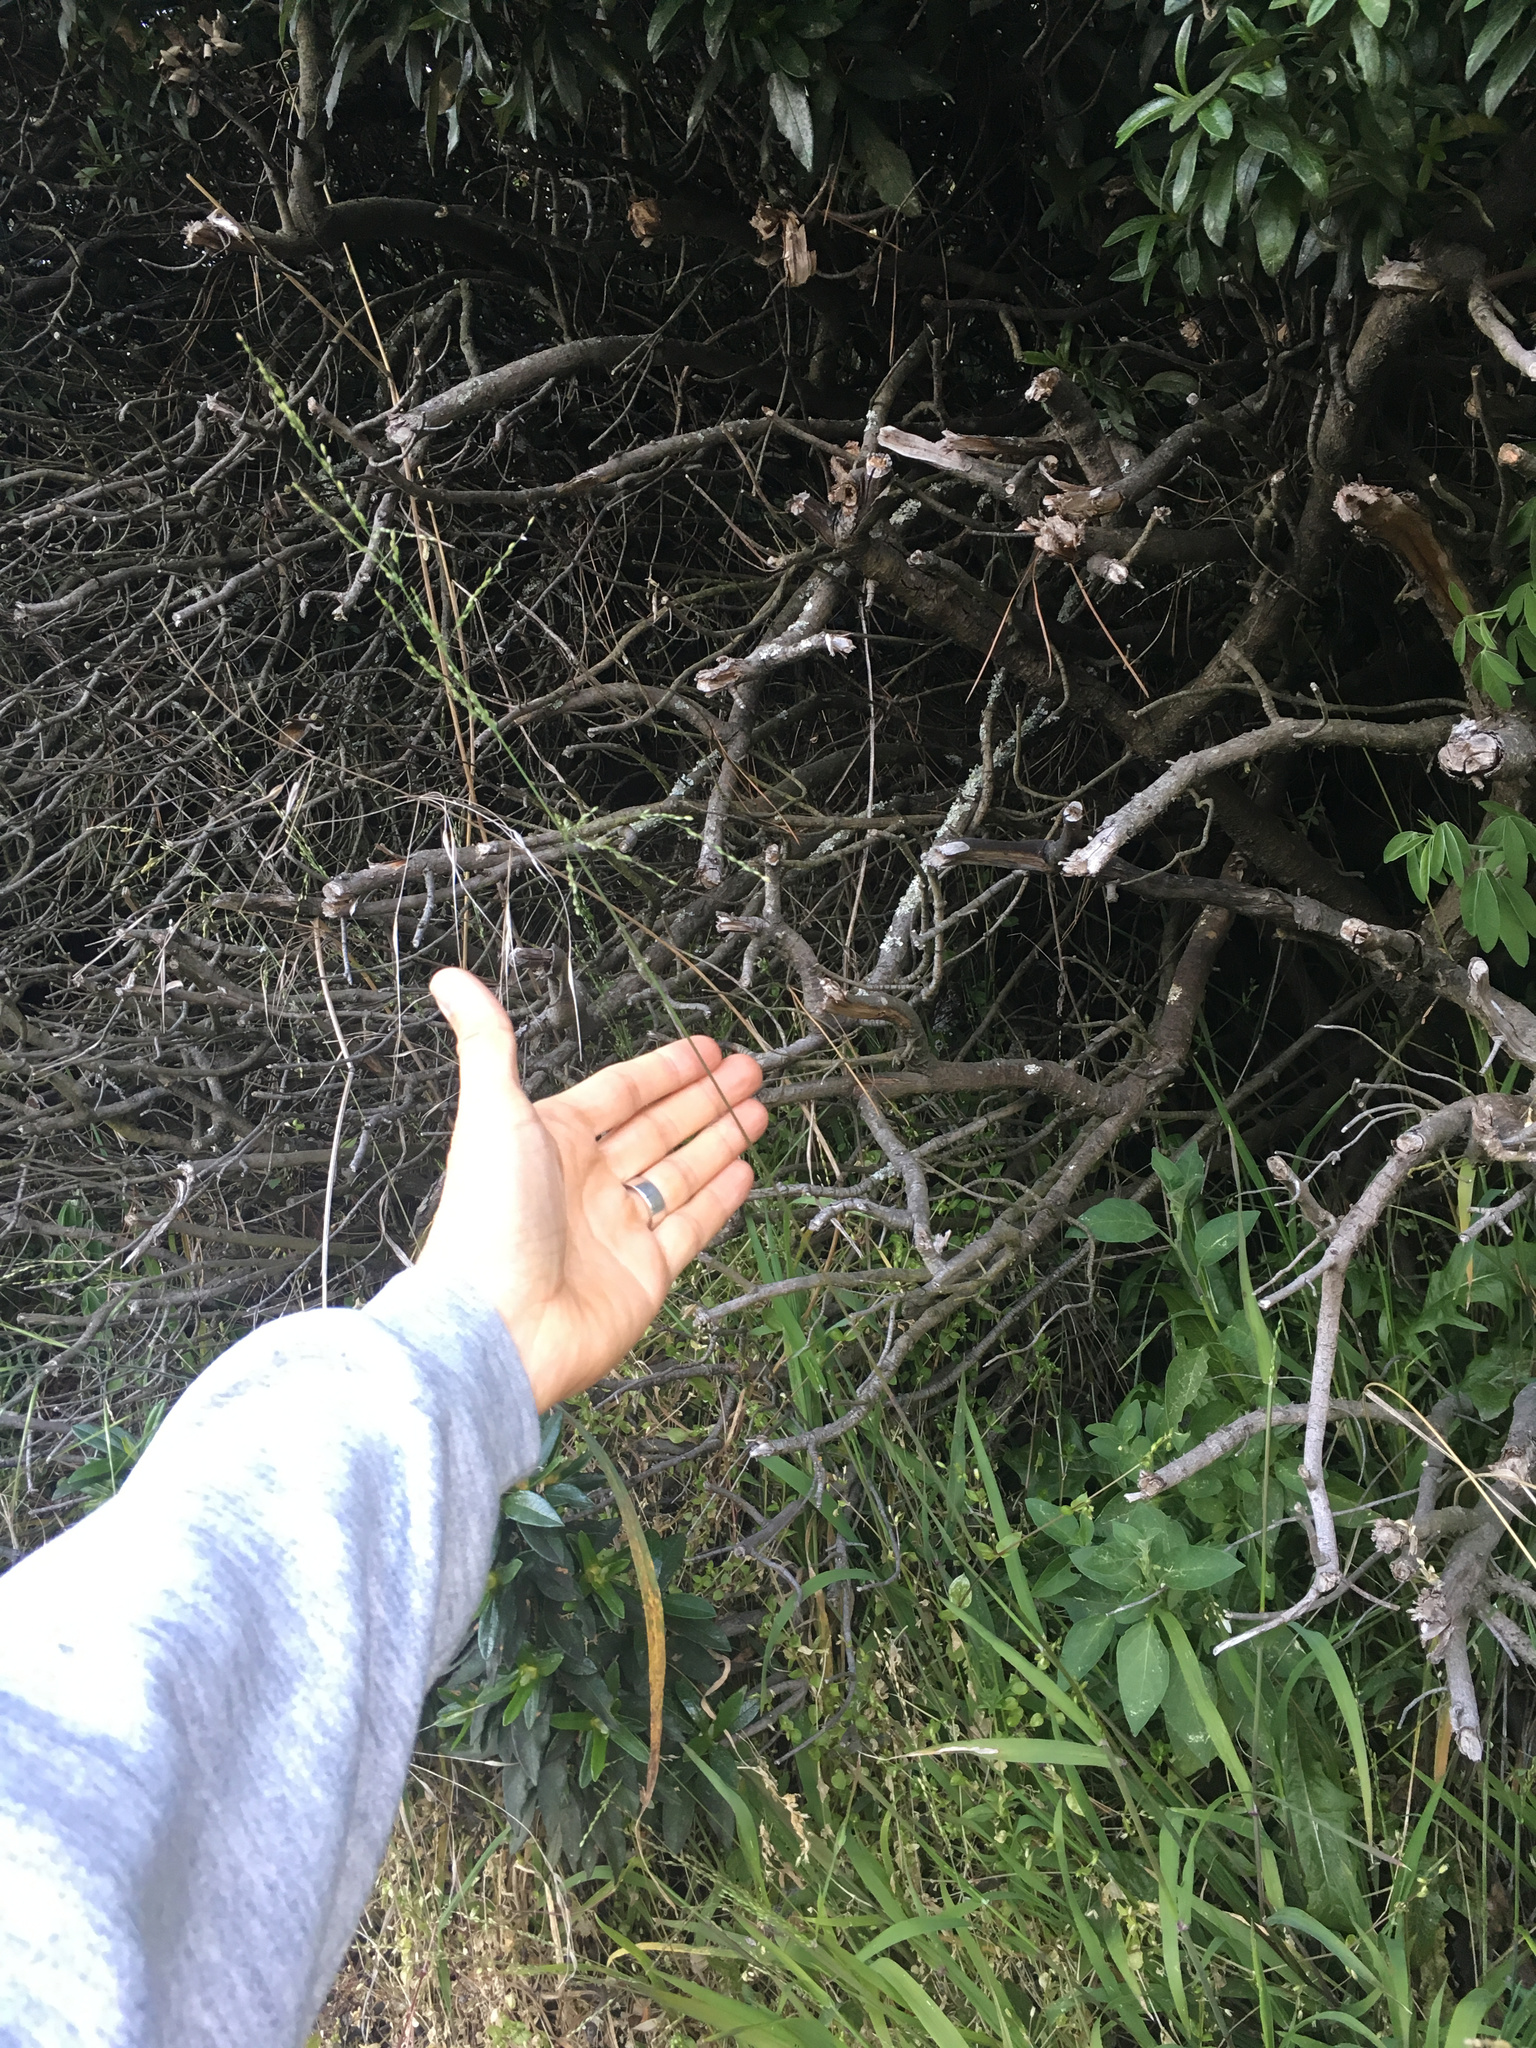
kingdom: Plantae
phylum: Tracheophyta
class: Liliopsida
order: Poales
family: Poaceae
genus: Ehrharta
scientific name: Ehrharta erecta
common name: Panic veldtgrass
